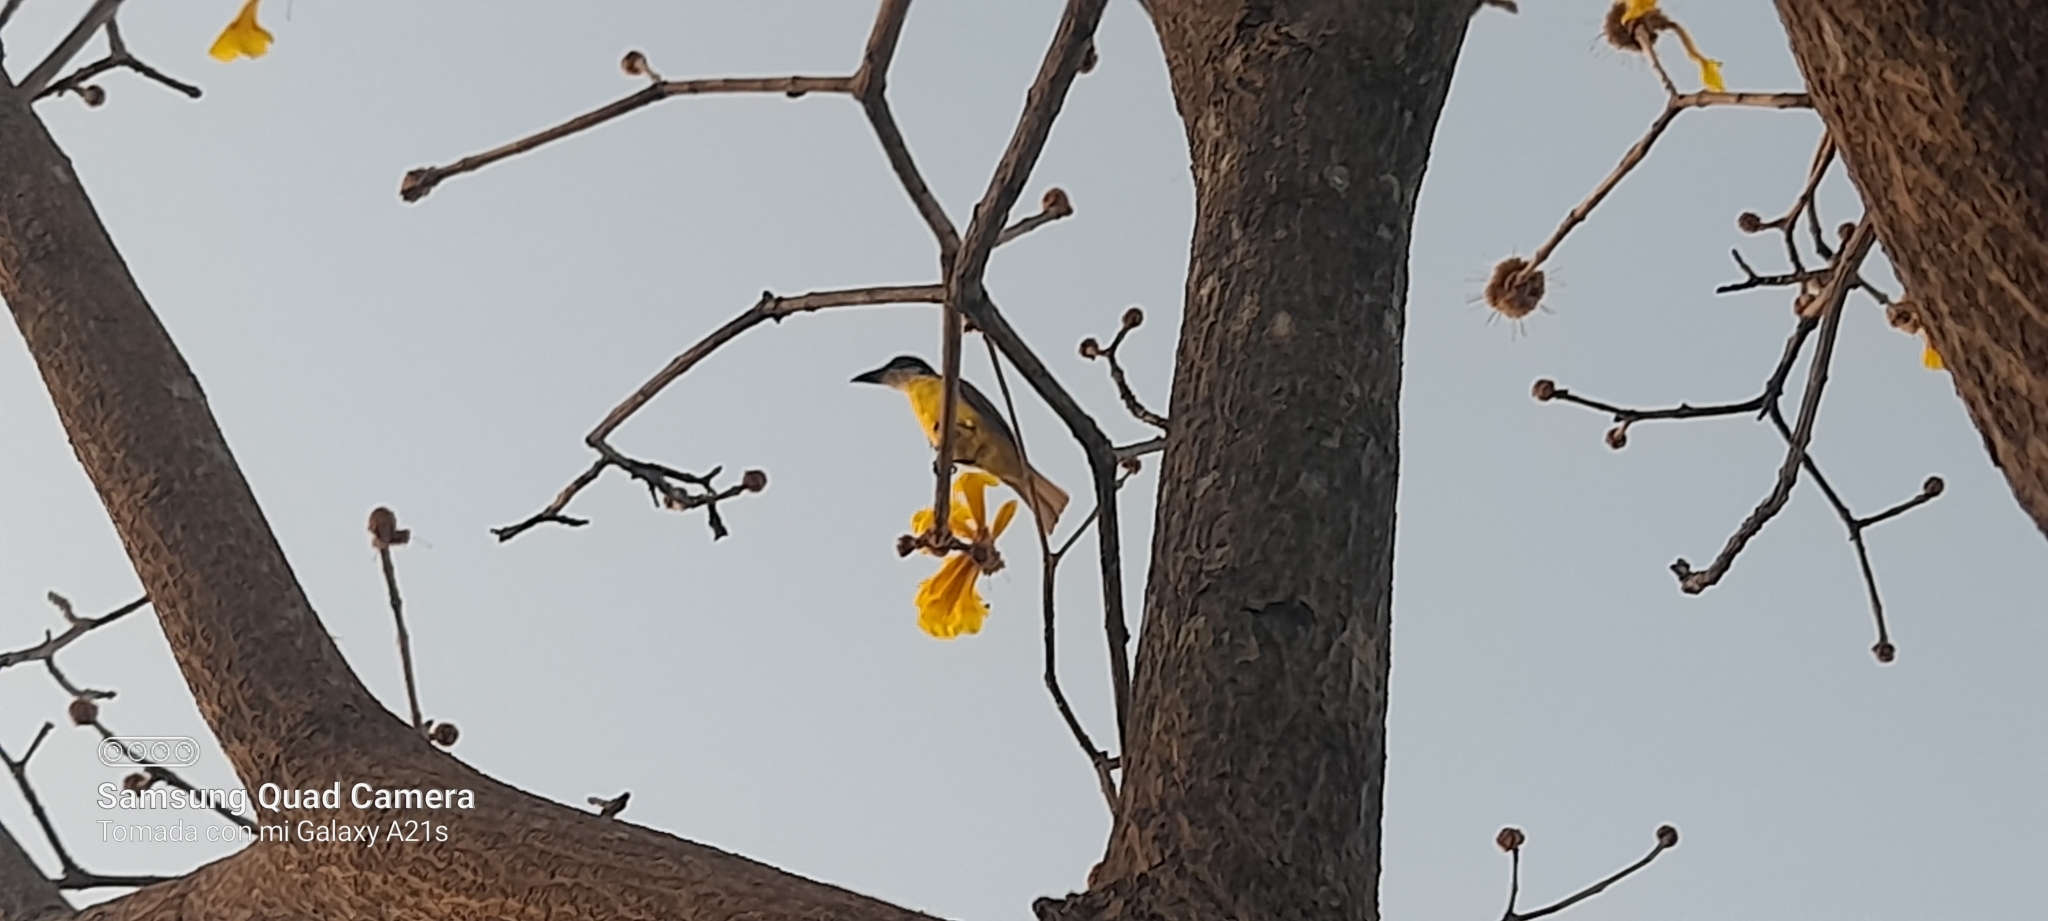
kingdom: Animalia
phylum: Chordata
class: Aves
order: Passeriformes
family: Tyrannidae
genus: Megarynchus
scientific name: Megarynchus pitangua
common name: Boat-billed flycatcher
